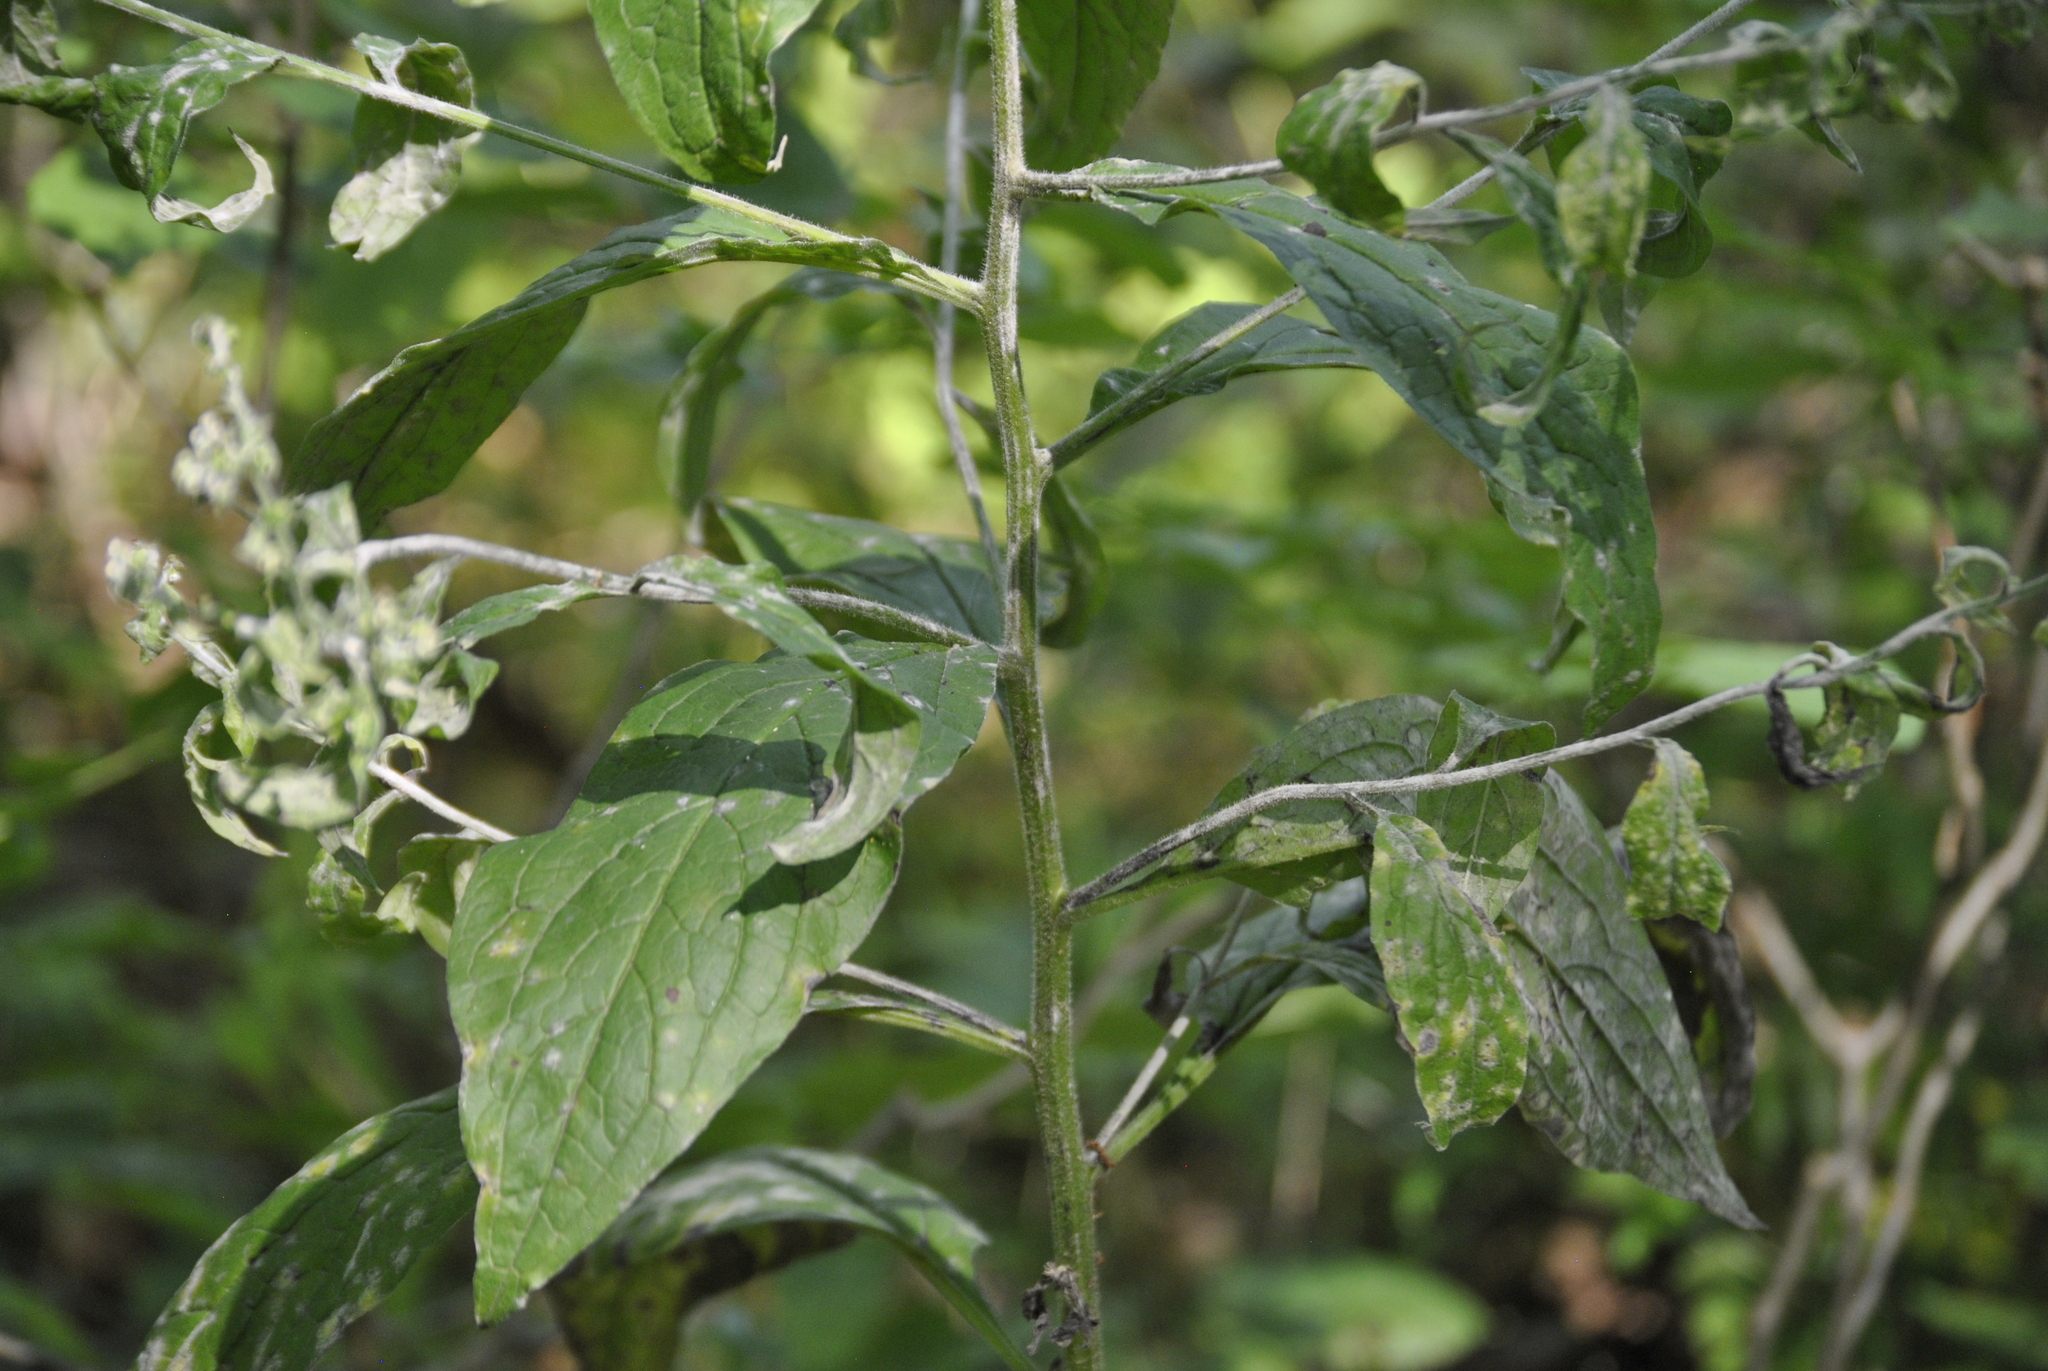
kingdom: Plantae
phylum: Tracheophyta
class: Magnoliopsida
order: Boraginales
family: Boraginaceae
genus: Hackelia
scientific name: Hackelia virginiana
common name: Beggar's-lice
